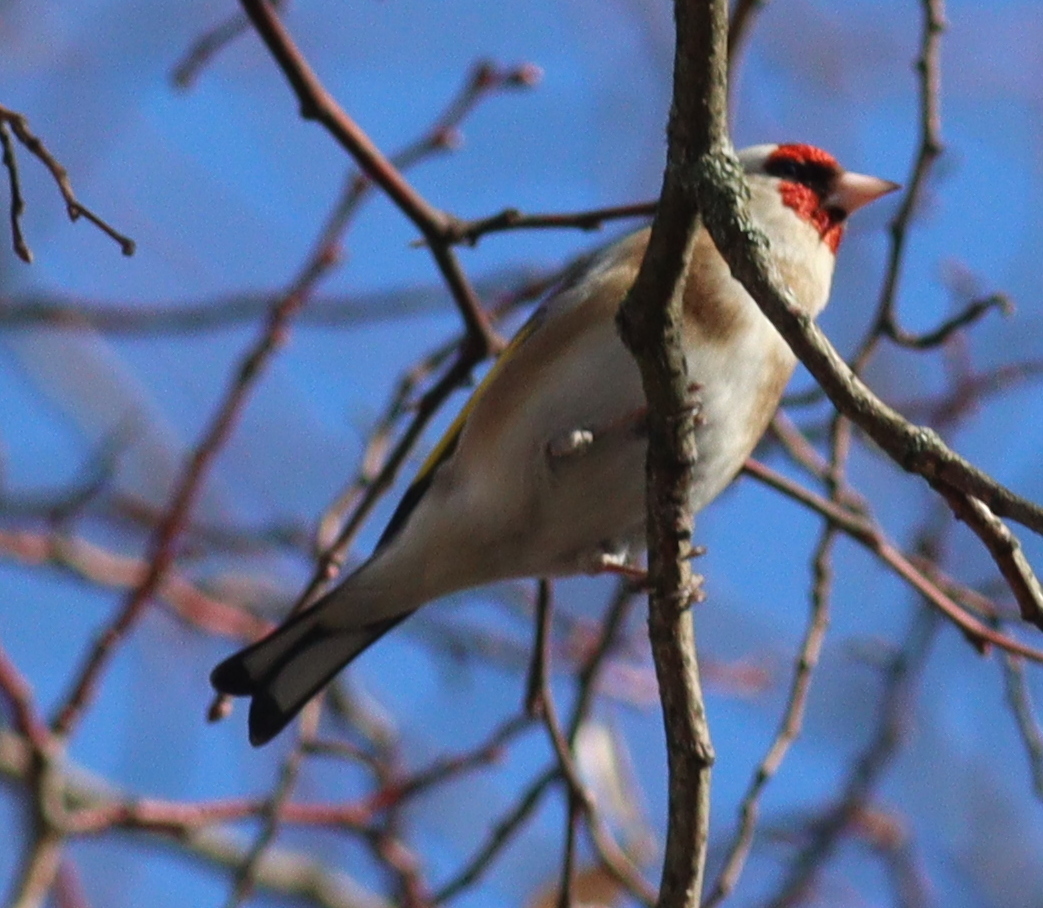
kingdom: Animalia
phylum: Chordata
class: Aves
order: Passeriformes
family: Fringillidae
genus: Carduelis
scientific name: Carduelis carduelis
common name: European goldfinch
